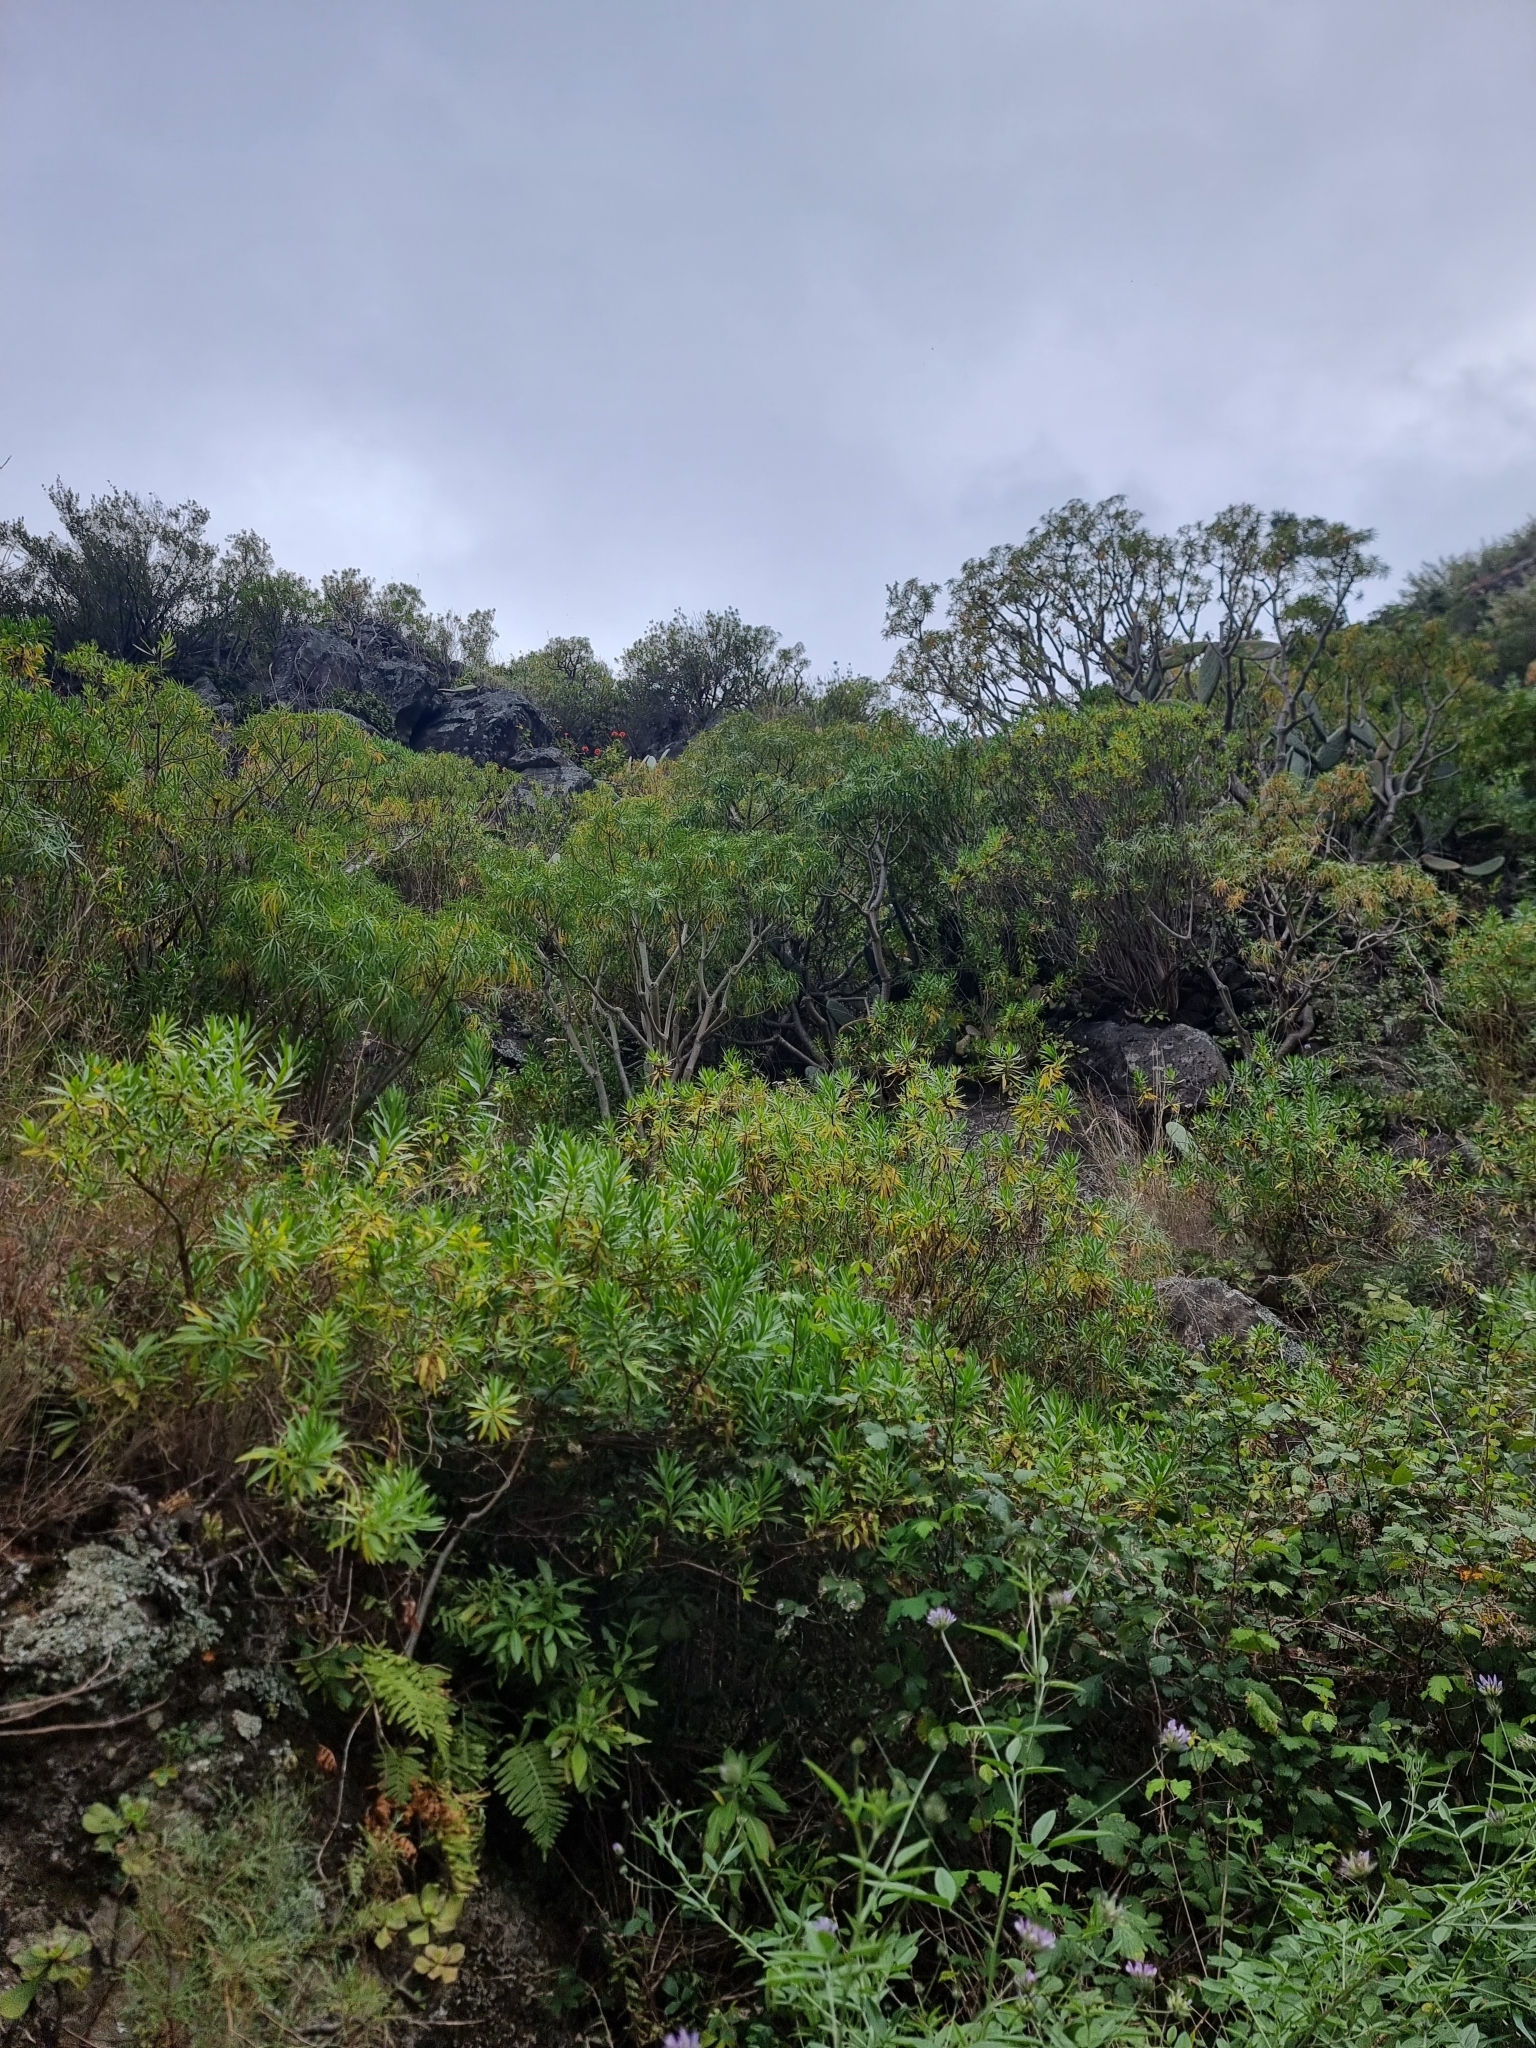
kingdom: Plantae
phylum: Tracheophyta
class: Magnoliopsida
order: Malpighiales
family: Euphorbiaceae
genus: Euphorbia
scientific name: Euphorbia piscatoria
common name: Fish-stunning spurge
